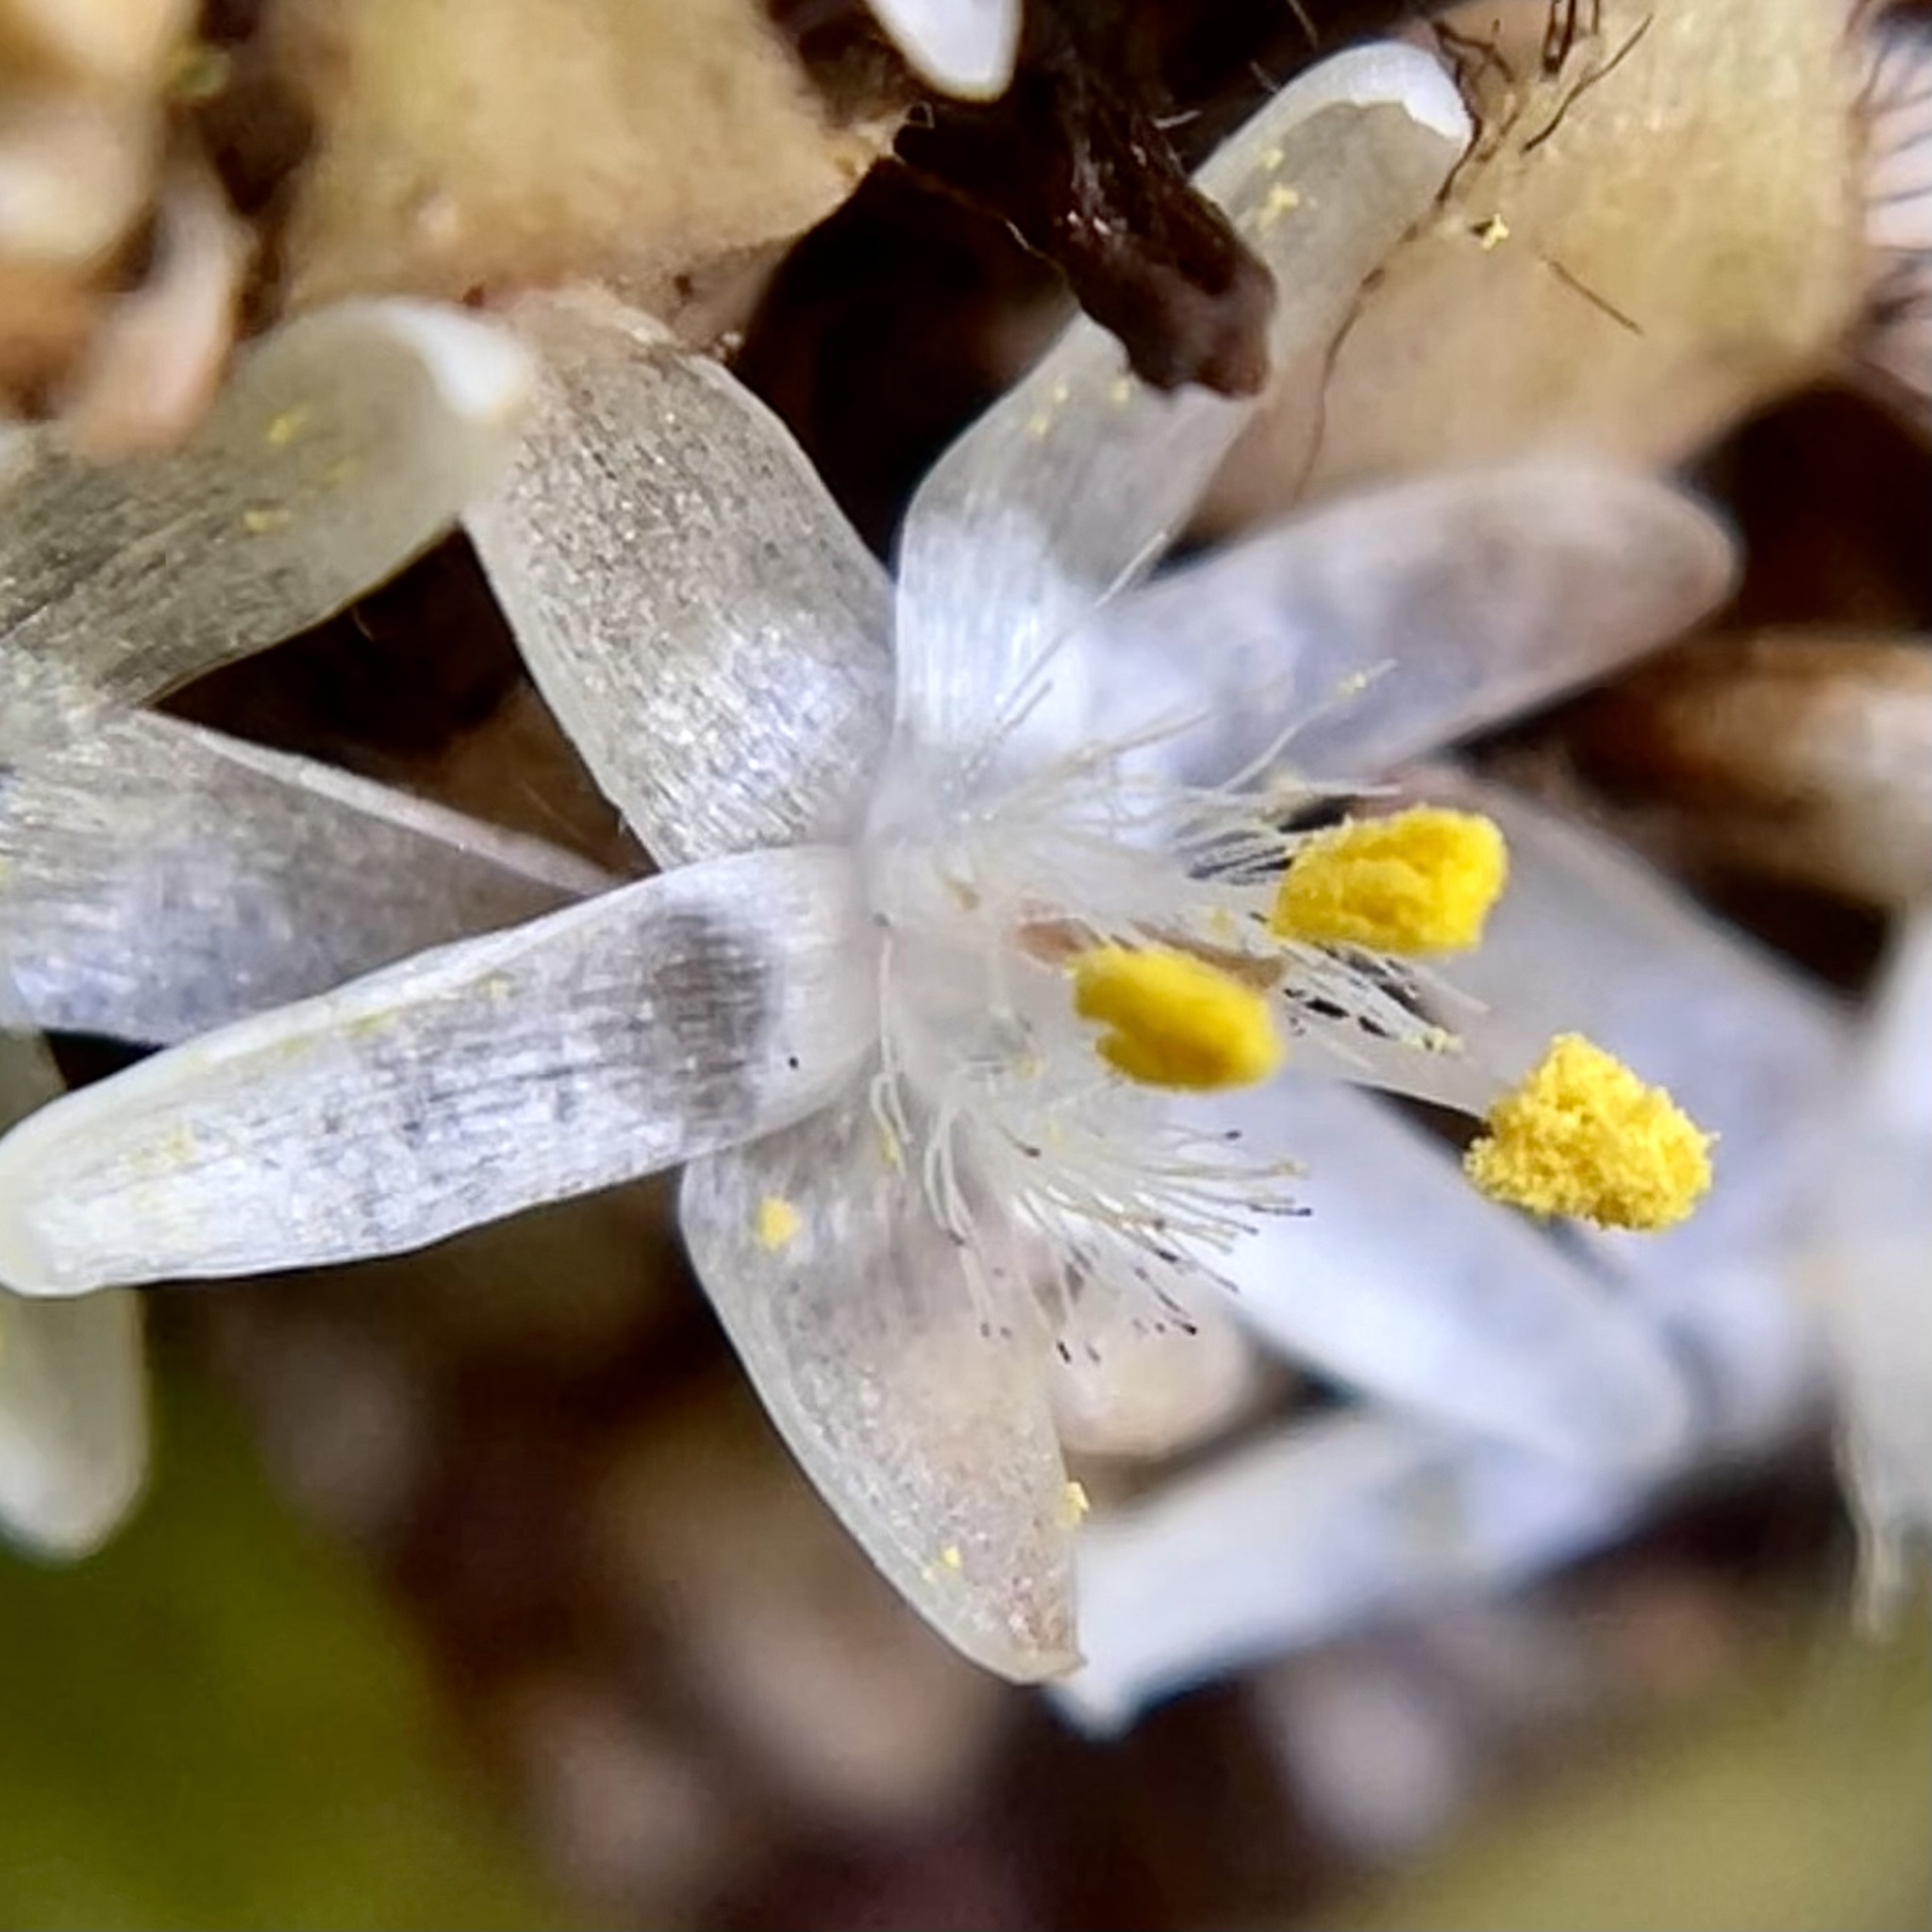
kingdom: Plantae
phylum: Tracheophyta
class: Liliopsida
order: Commelinales
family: Commelinaceae
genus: Palisota
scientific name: Palisota bracteosa
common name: Palisota
